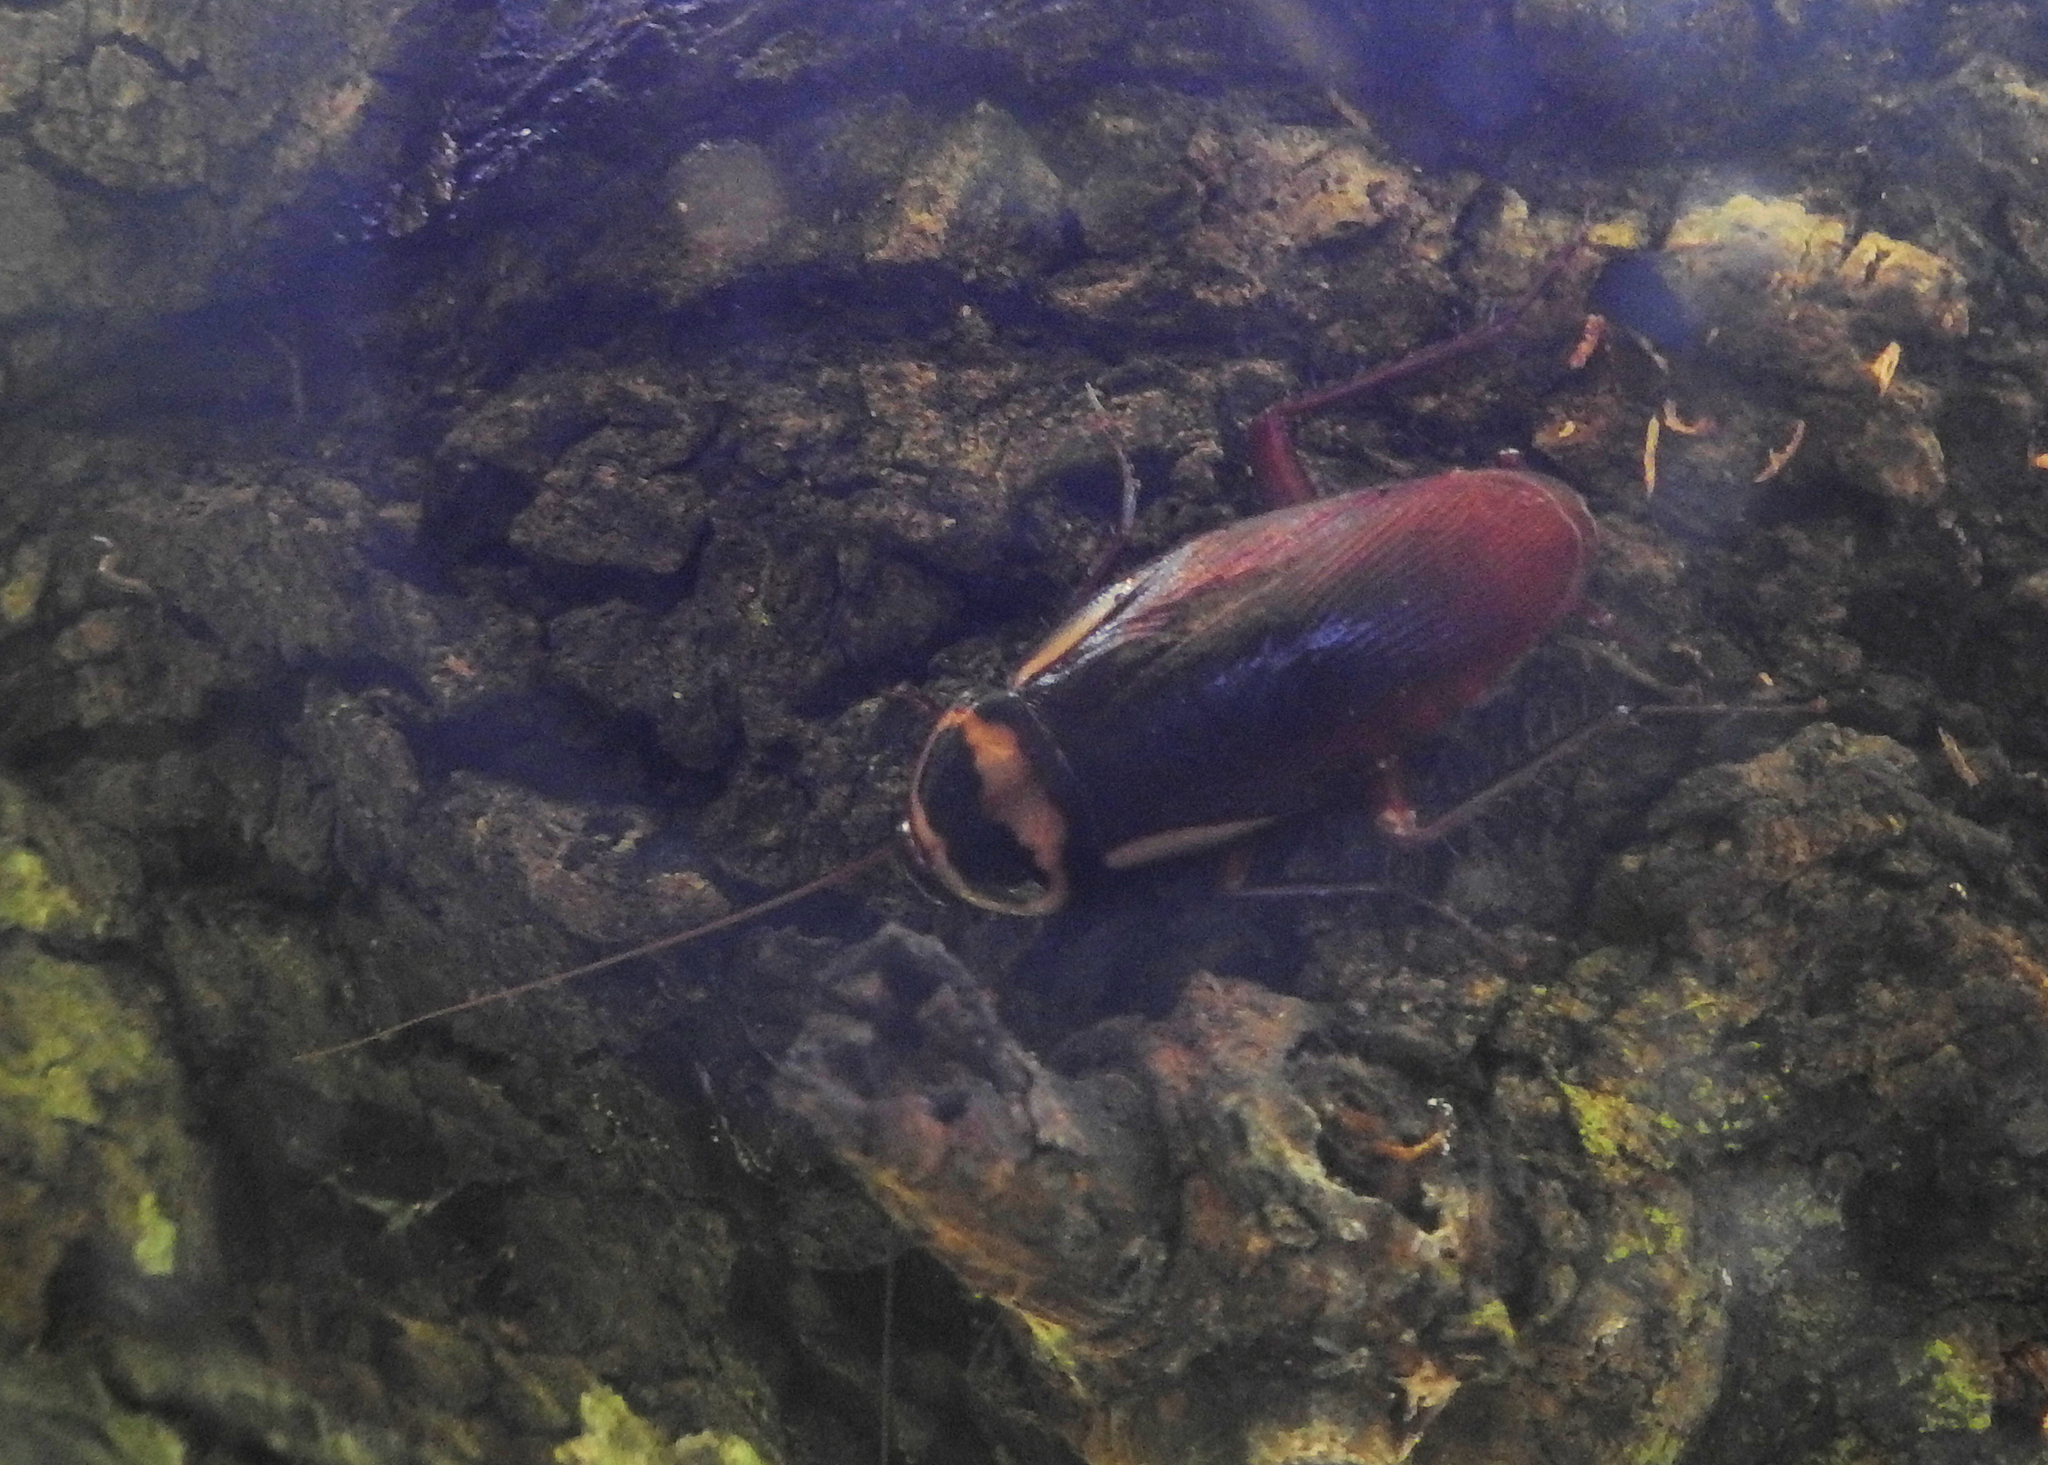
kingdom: Animalia
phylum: Arthropoda
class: Insecta
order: Blattodea
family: Blattidae
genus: Periplaneta
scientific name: Periplaneta australasiae
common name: Australian cockroach
